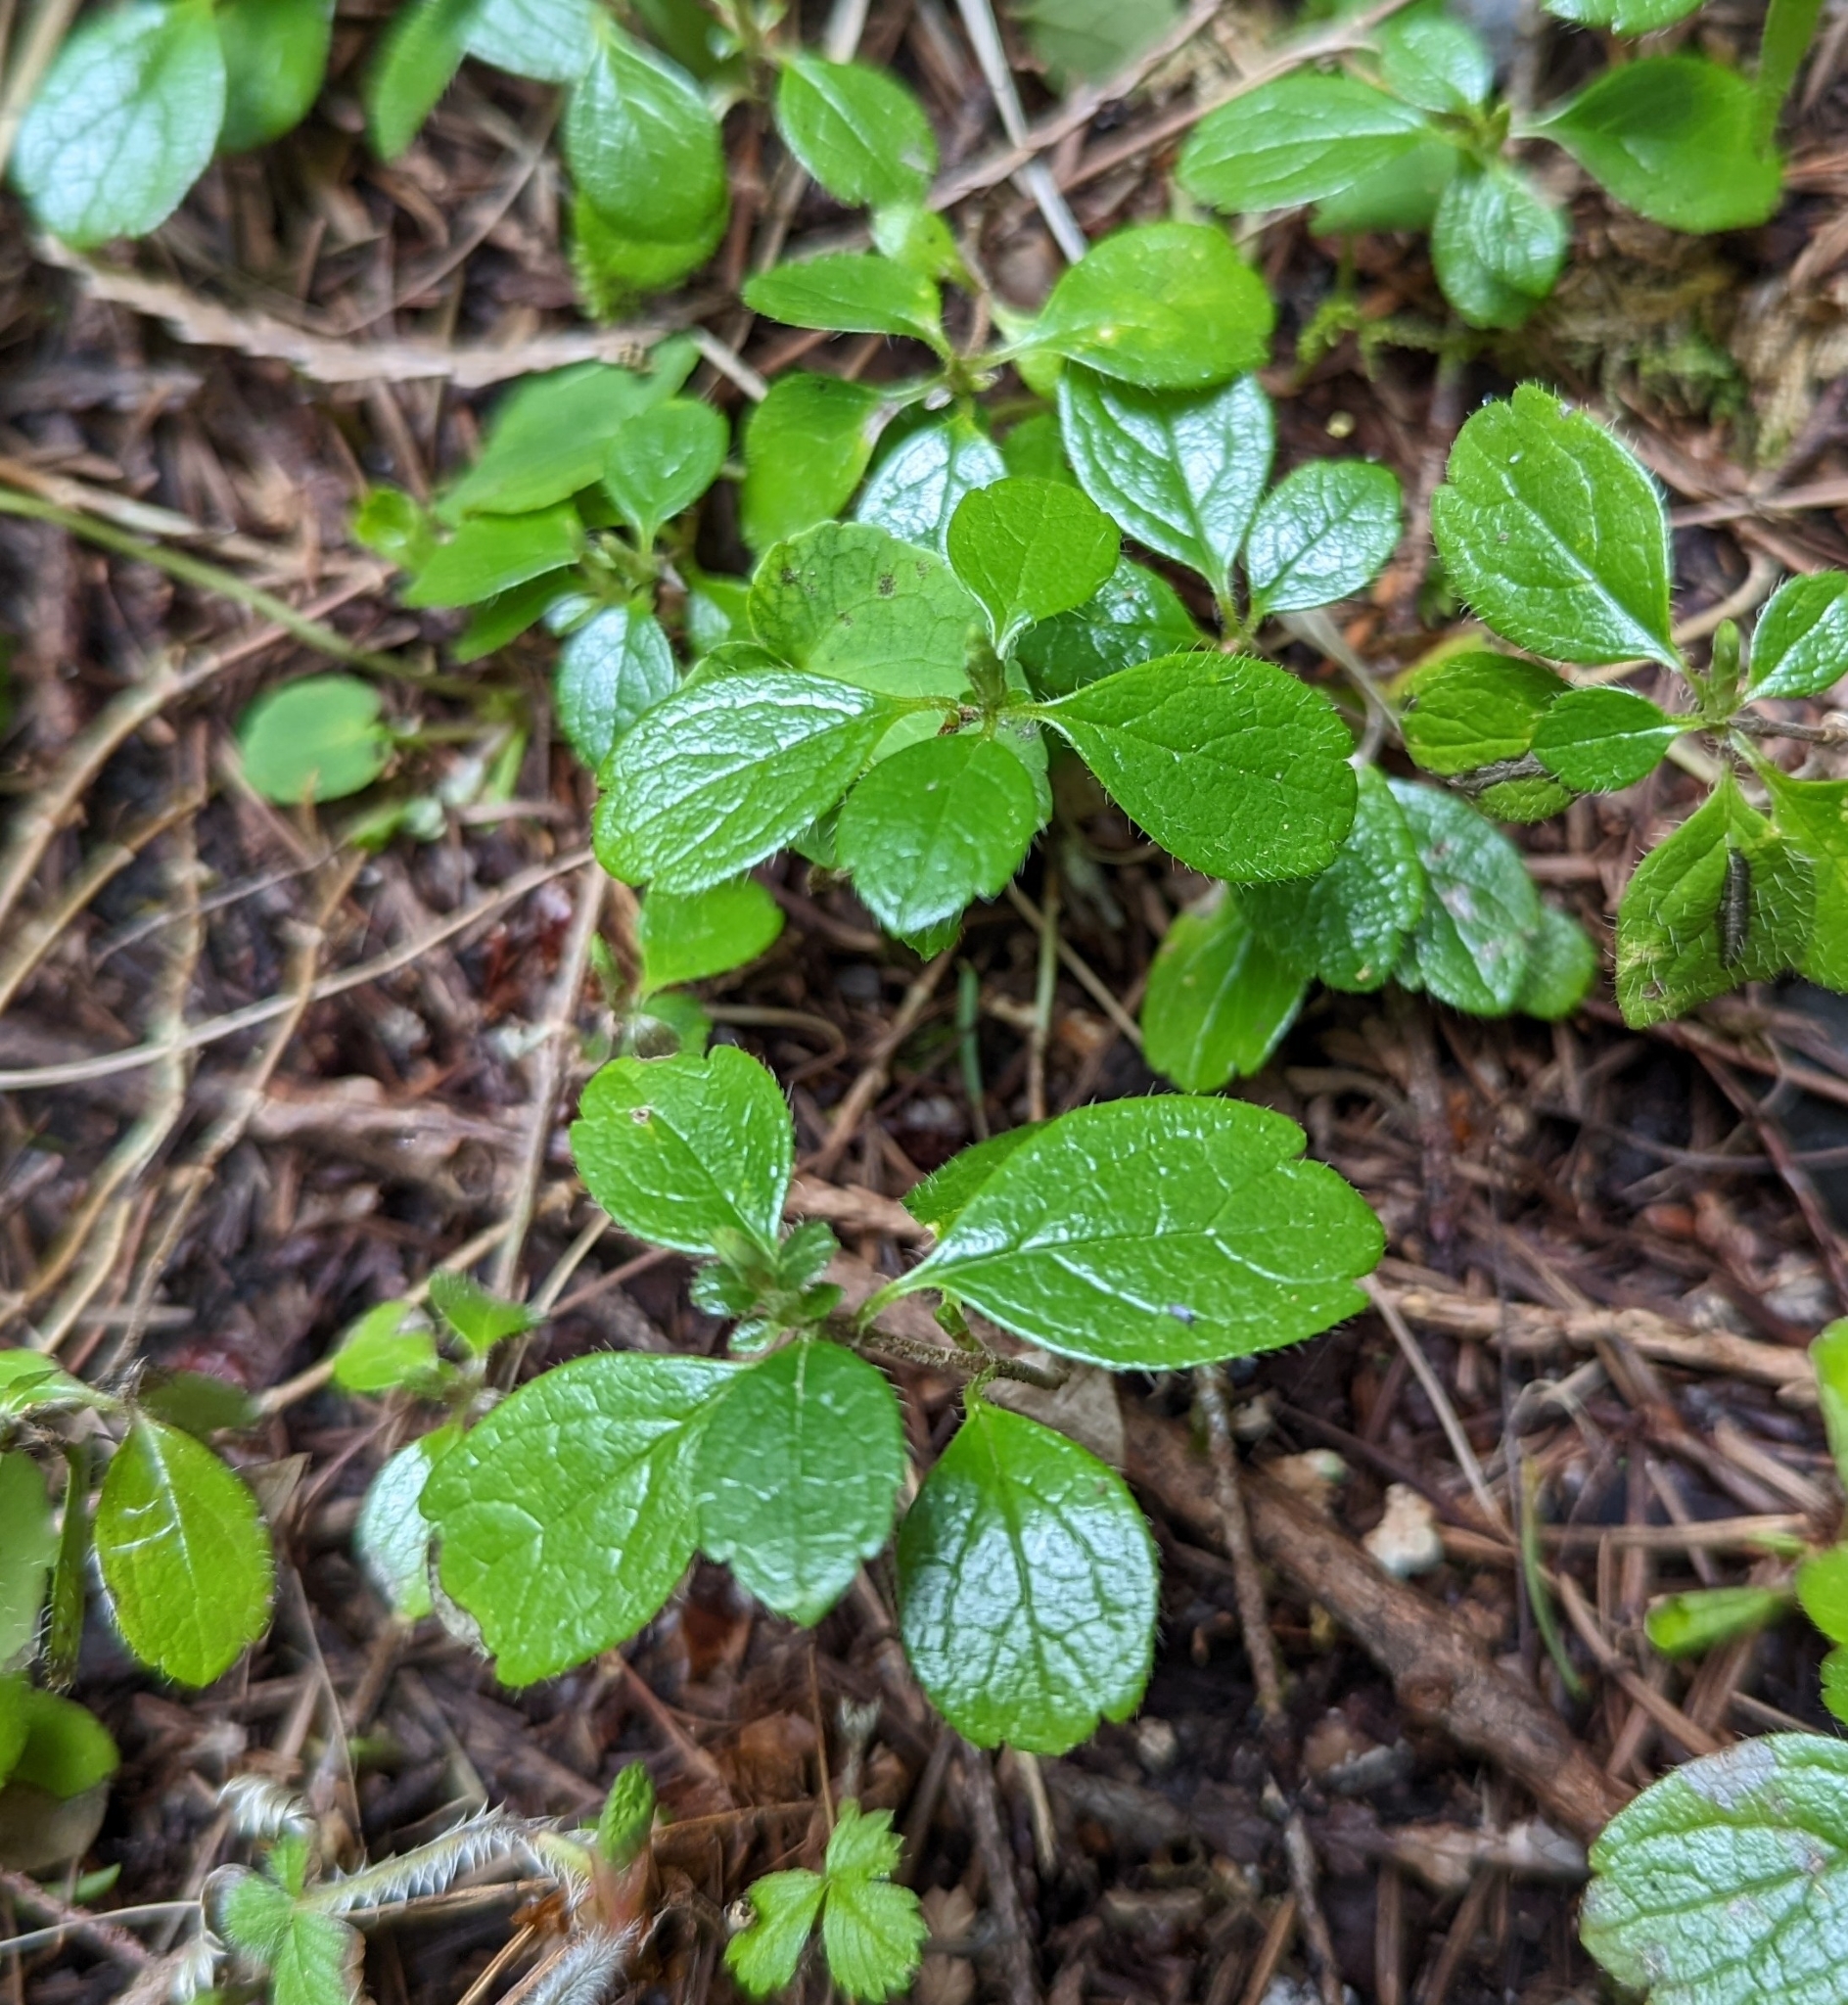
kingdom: Plantae
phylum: Tracheophyta
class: Magnoliopsida
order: Dipsacales
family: Caprifoliaceae
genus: Linnaea
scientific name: Linnaea borealis
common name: Twinflower
